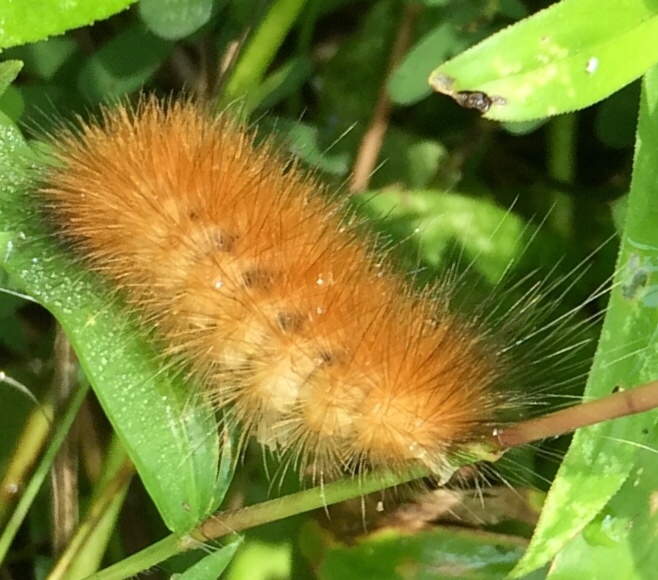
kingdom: Animalia
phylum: Arthropoda
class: Insecta
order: Lepidoptera
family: Erebidae
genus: Spilosoma
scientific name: Spilosoma virginica
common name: Virginia tiger moth
